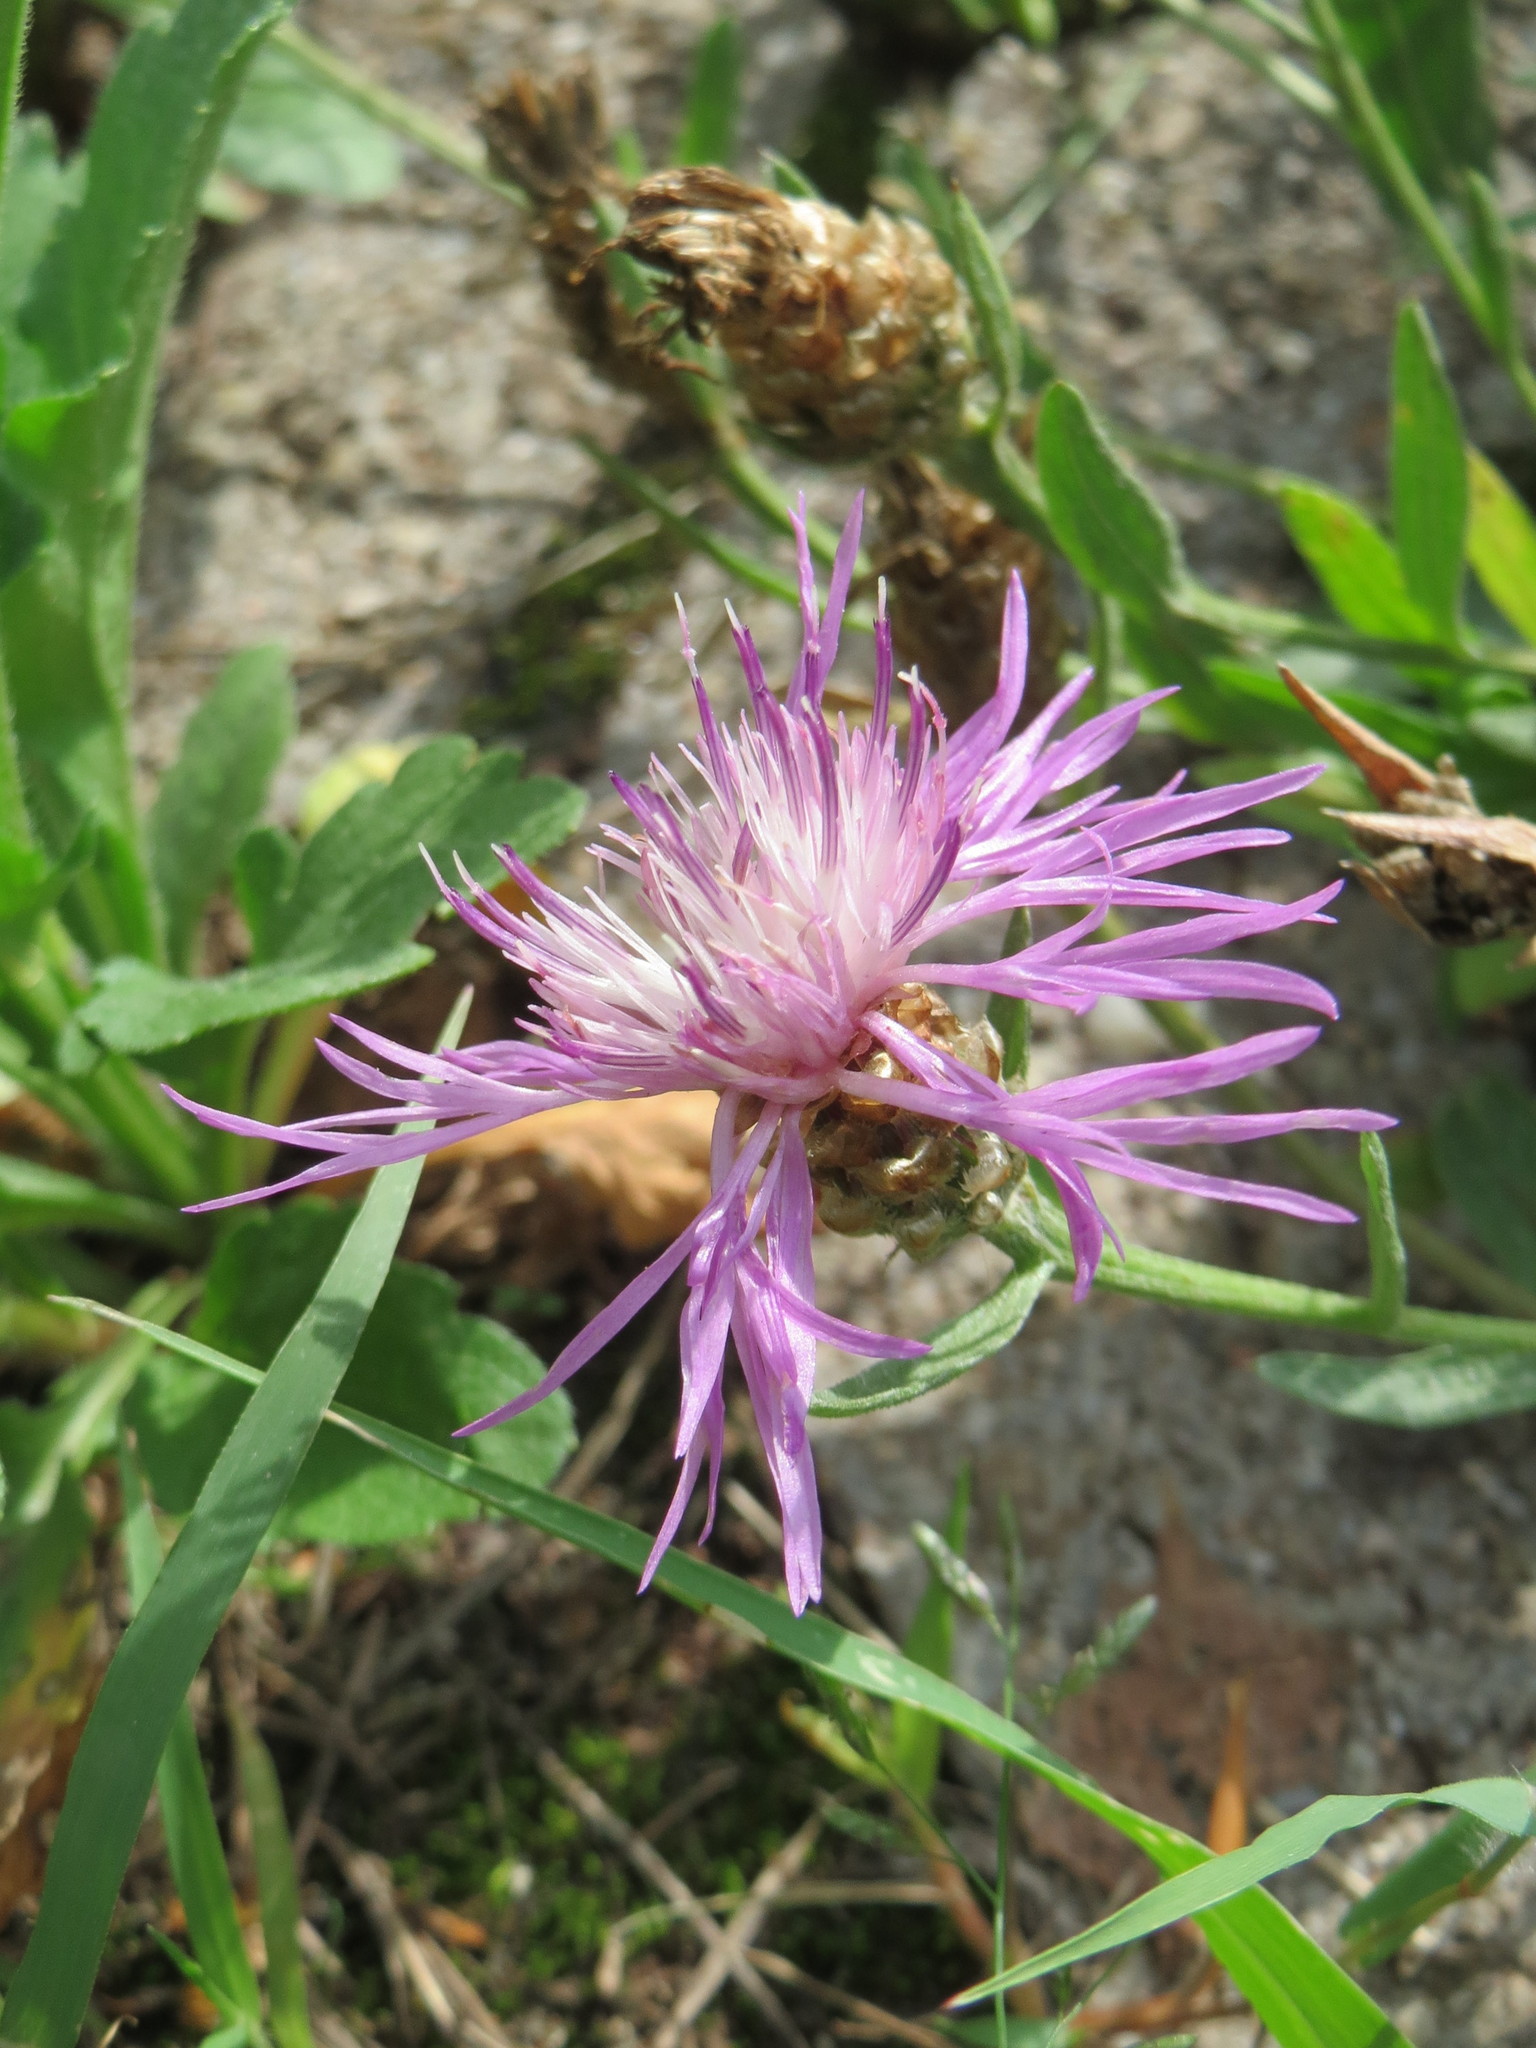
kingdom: Plantae
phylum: Tracheophyta
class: Magnoliopsida
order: Asterales
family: Asteraceae
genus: Centaurea
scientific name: Centaurea jacea
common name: Brown knapweed
